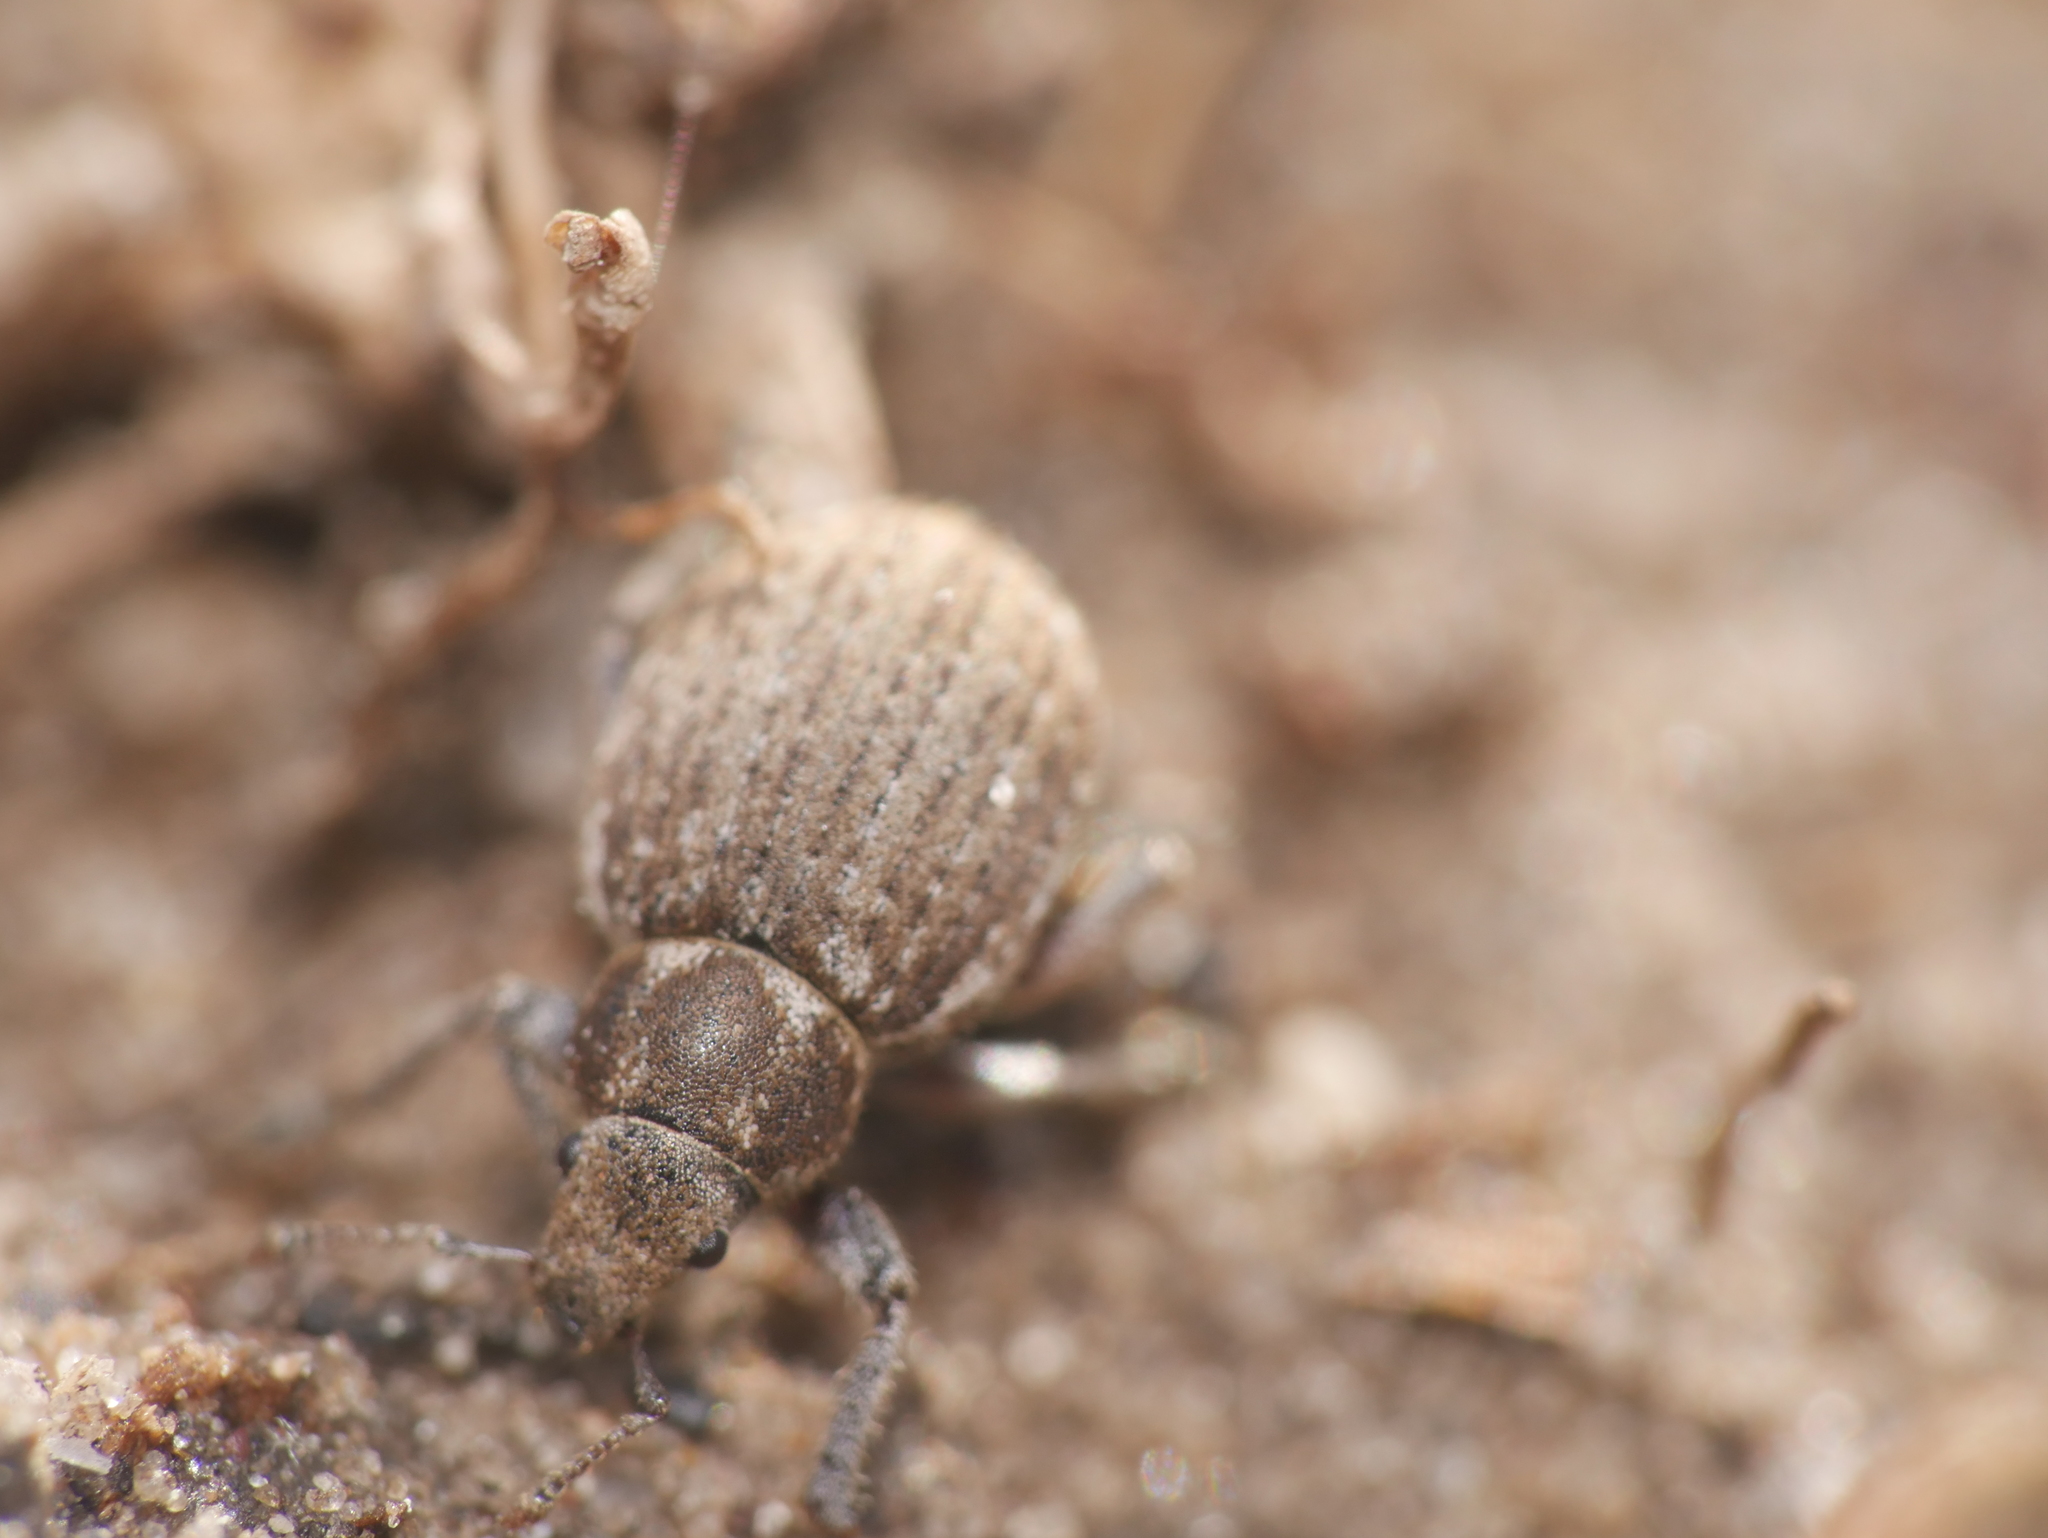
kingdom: Animalia
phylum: Arthropoda
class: Insecta
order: Coleoptera
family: Curculionidae
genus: Philopedon
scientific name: Philopedon plagiatum
